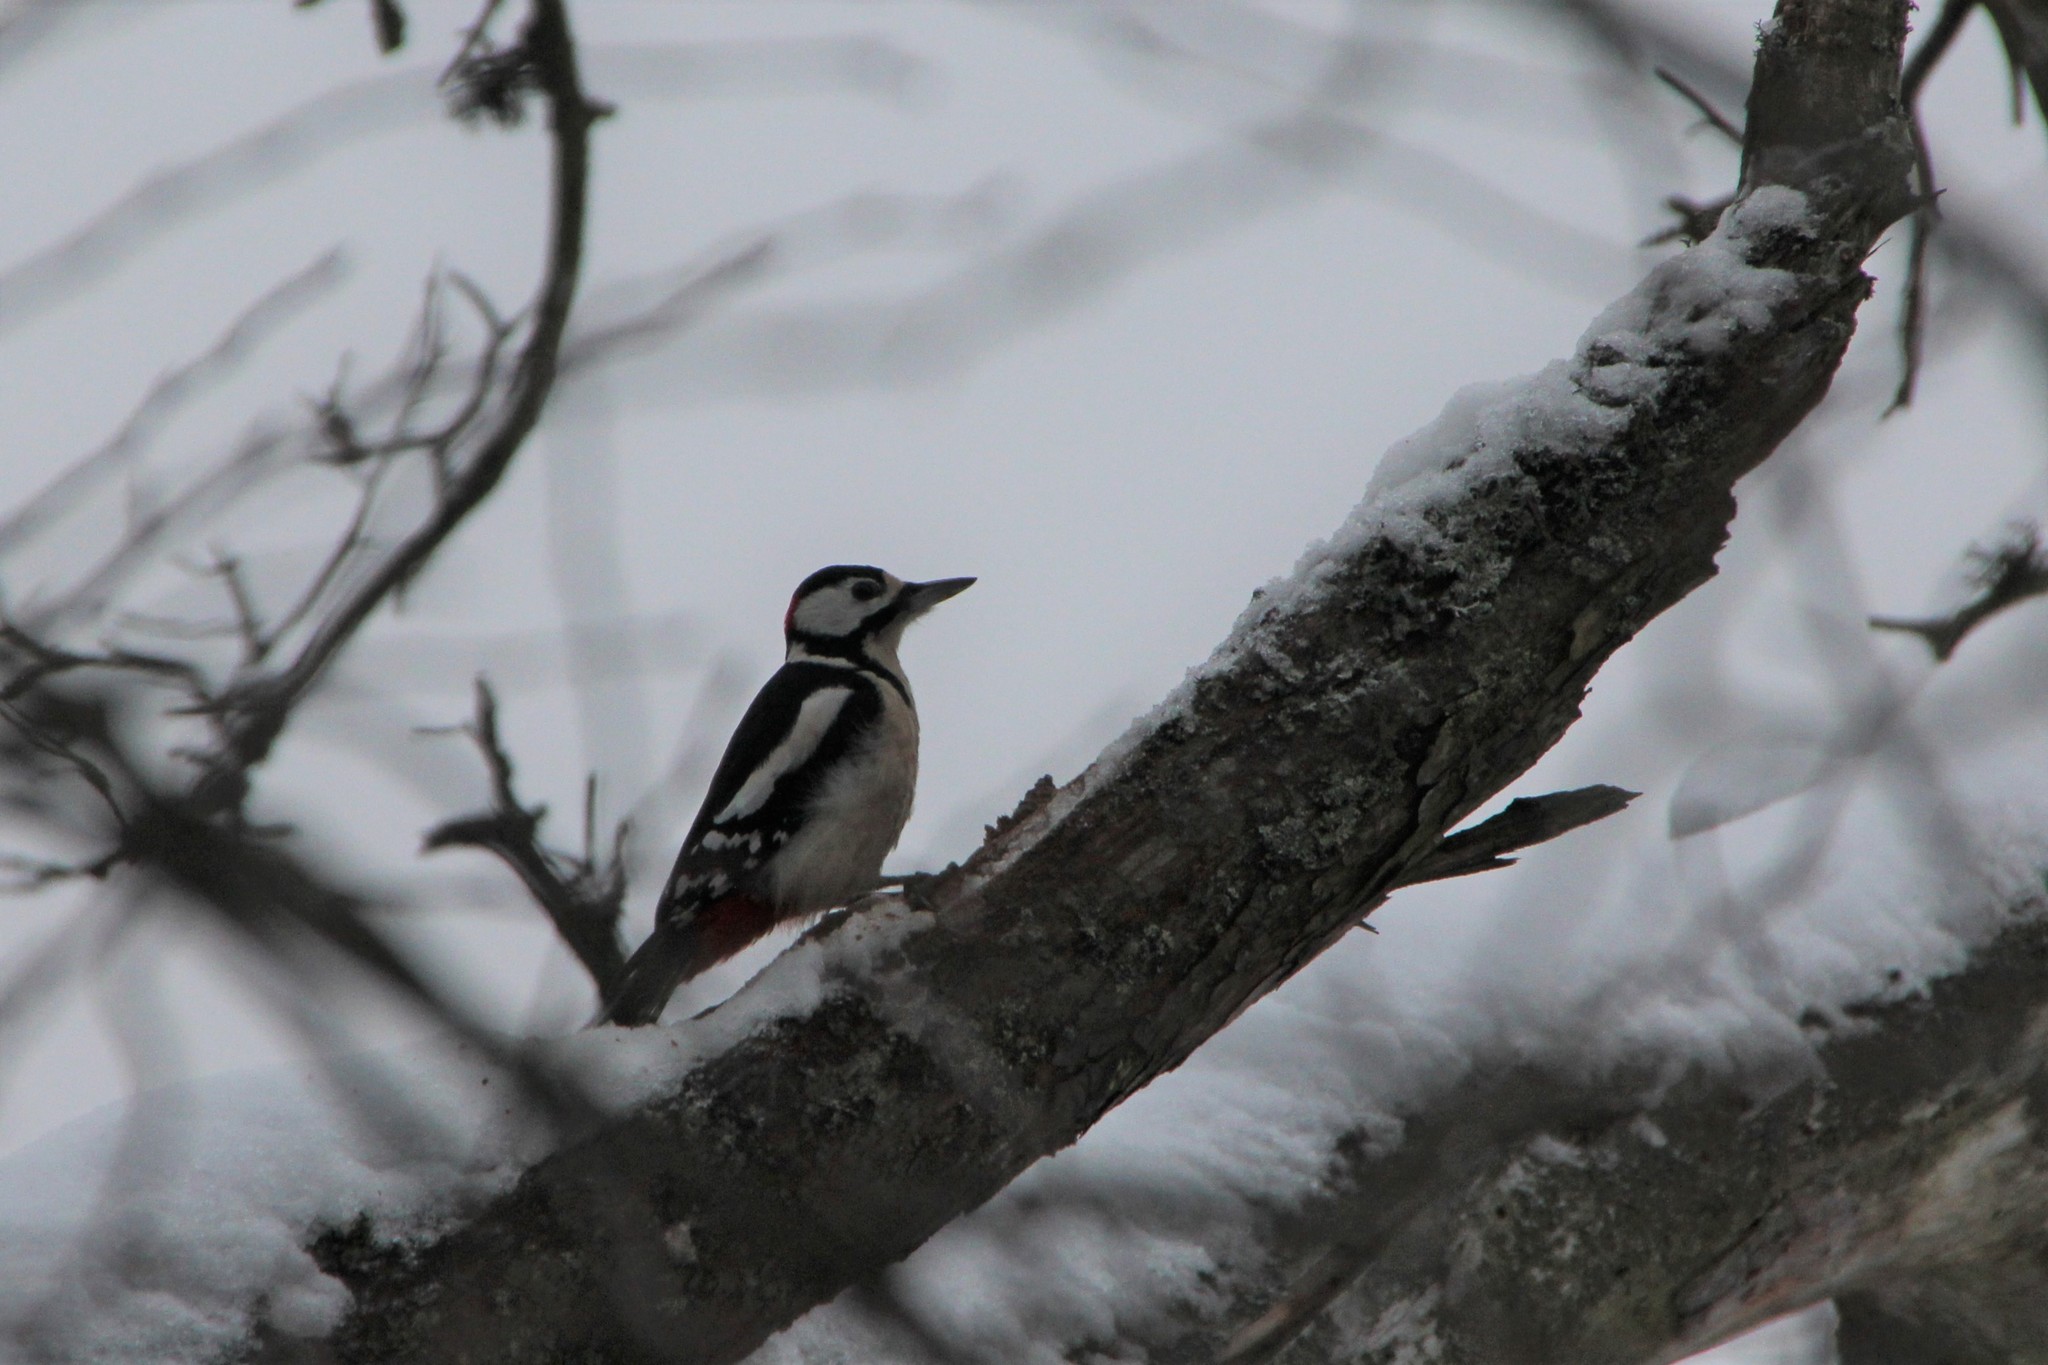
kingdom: Animalia
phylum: Chordata
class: Aves
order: Piciformes
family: Picidae
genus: Dendrocopos
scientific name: Dendrocopos major
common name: Great spotted woodpecker
